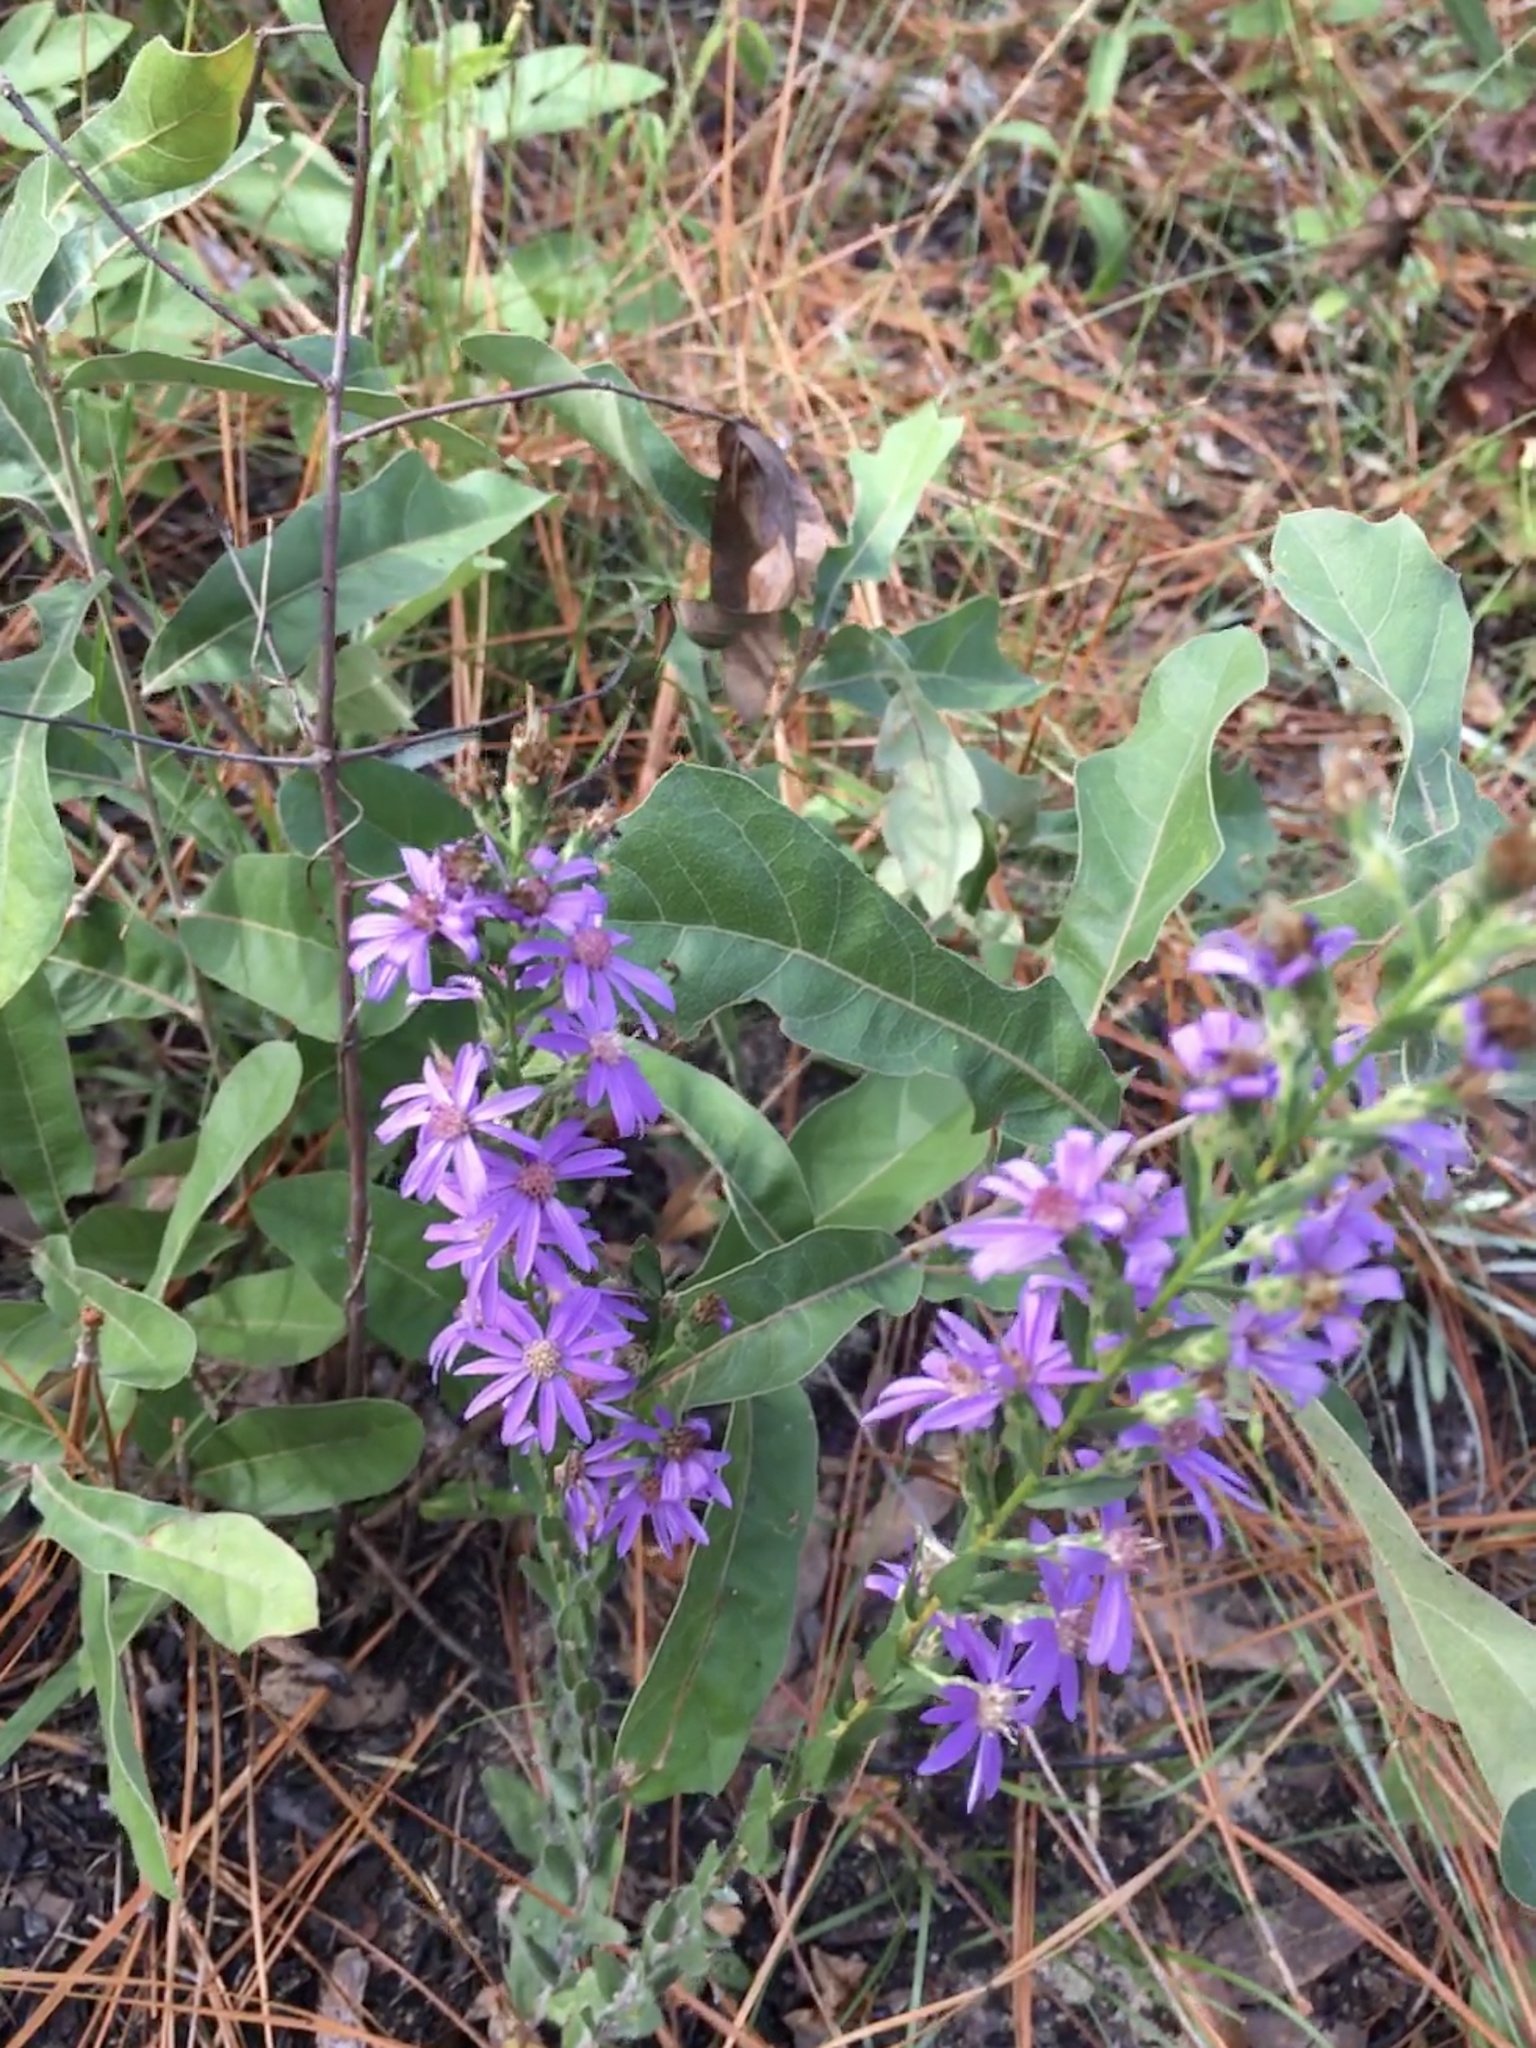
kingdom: Plantae
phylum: Tracheophyta
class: Magnoliopsida
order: Asterales
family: Asteraceae
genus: Symphyotrichum
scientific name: Symphyotrichum concolor
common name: Eastern silver aster
